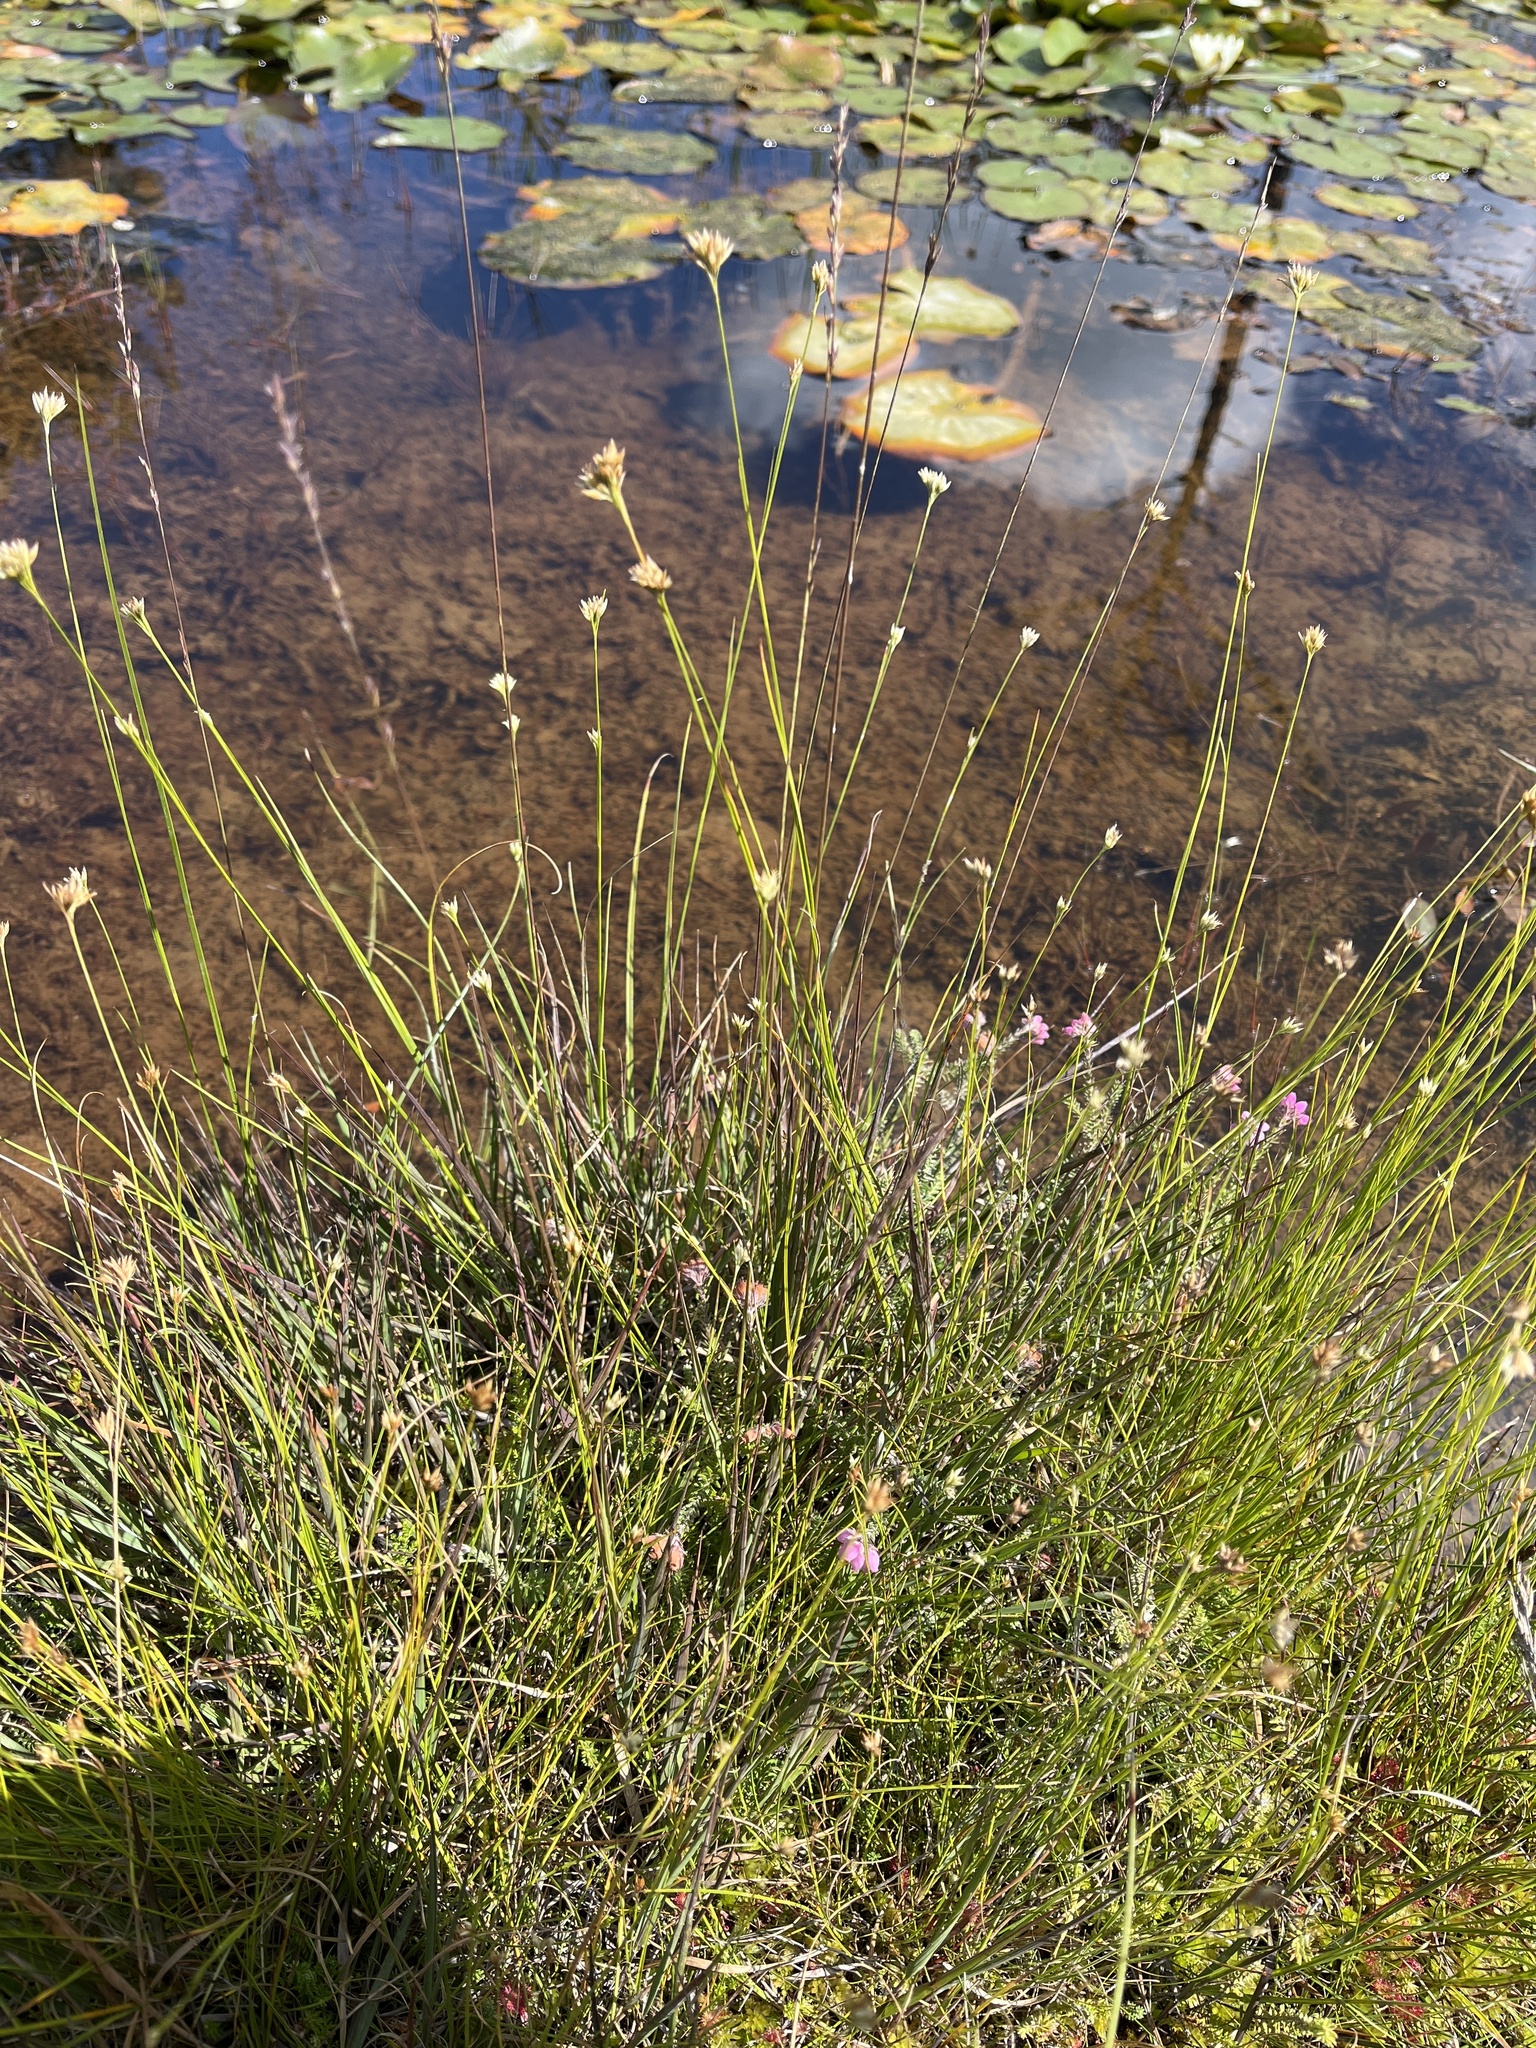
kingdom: Plantae
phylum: Tracheophyta
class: Liliopsida
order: Poales
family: Cyperaceae
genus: Rhynchospora
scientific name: Rhynchospora alba
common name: White beak-sedge
